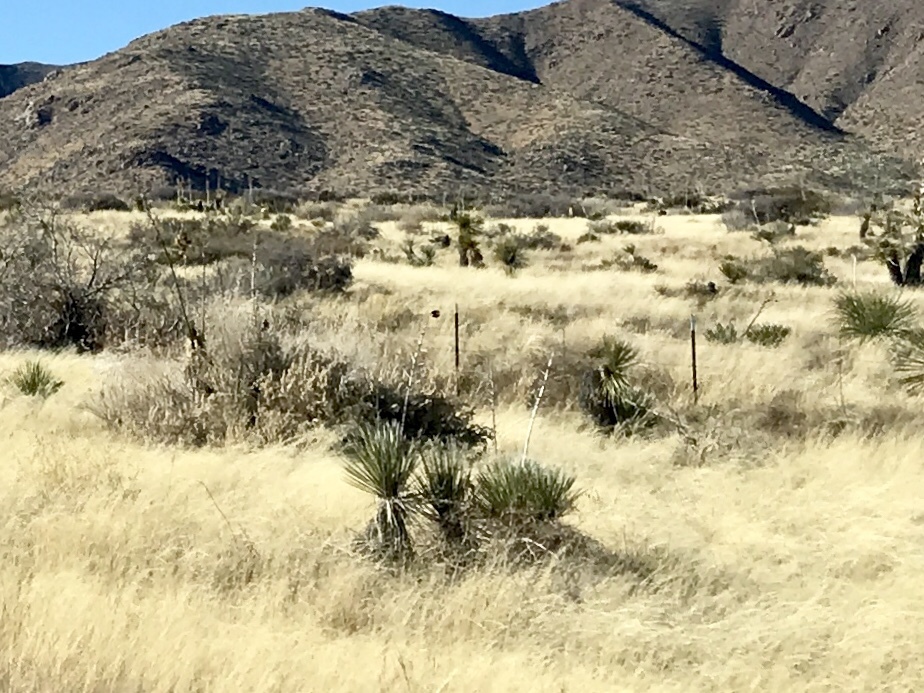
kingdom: Plantae
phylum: Tracheophyta
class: Liliopsida
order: Asparagales
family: Asparagaceae
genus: Yucca
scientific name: Yucca elata
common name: Palmella
